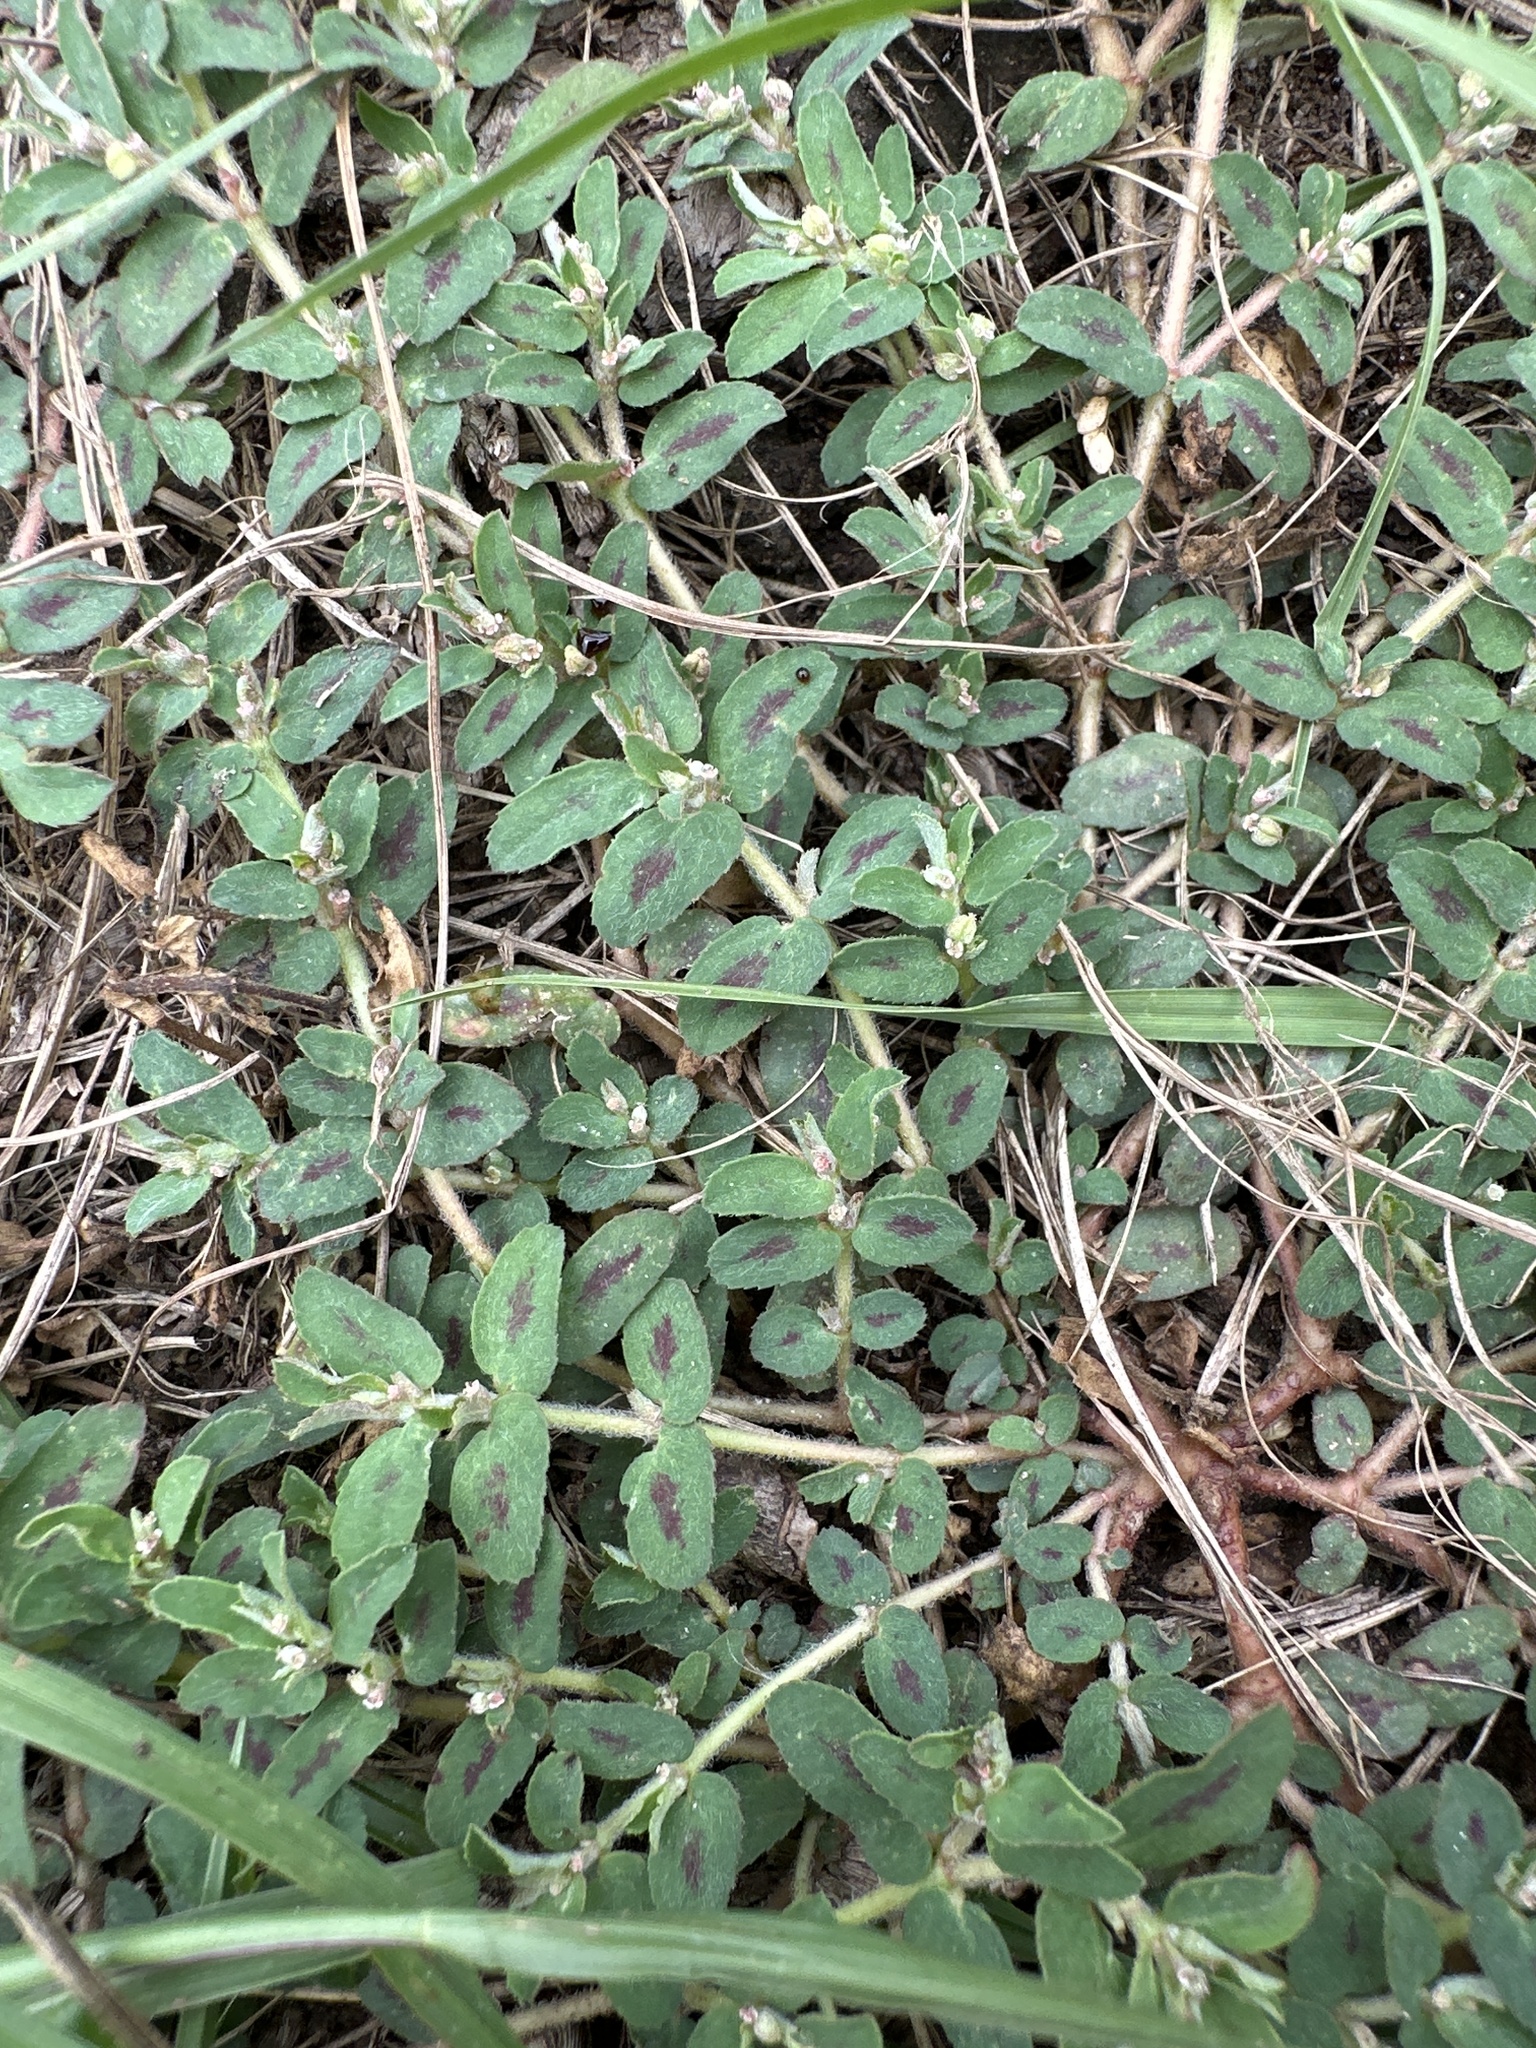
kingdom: Plantae
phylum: Tracheophyta
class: Magnoliopsida
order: Malpighiales
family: Euphorbiaceae
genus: Euphorbia
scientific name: Euphorbia maculata
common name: Spotted spurge
